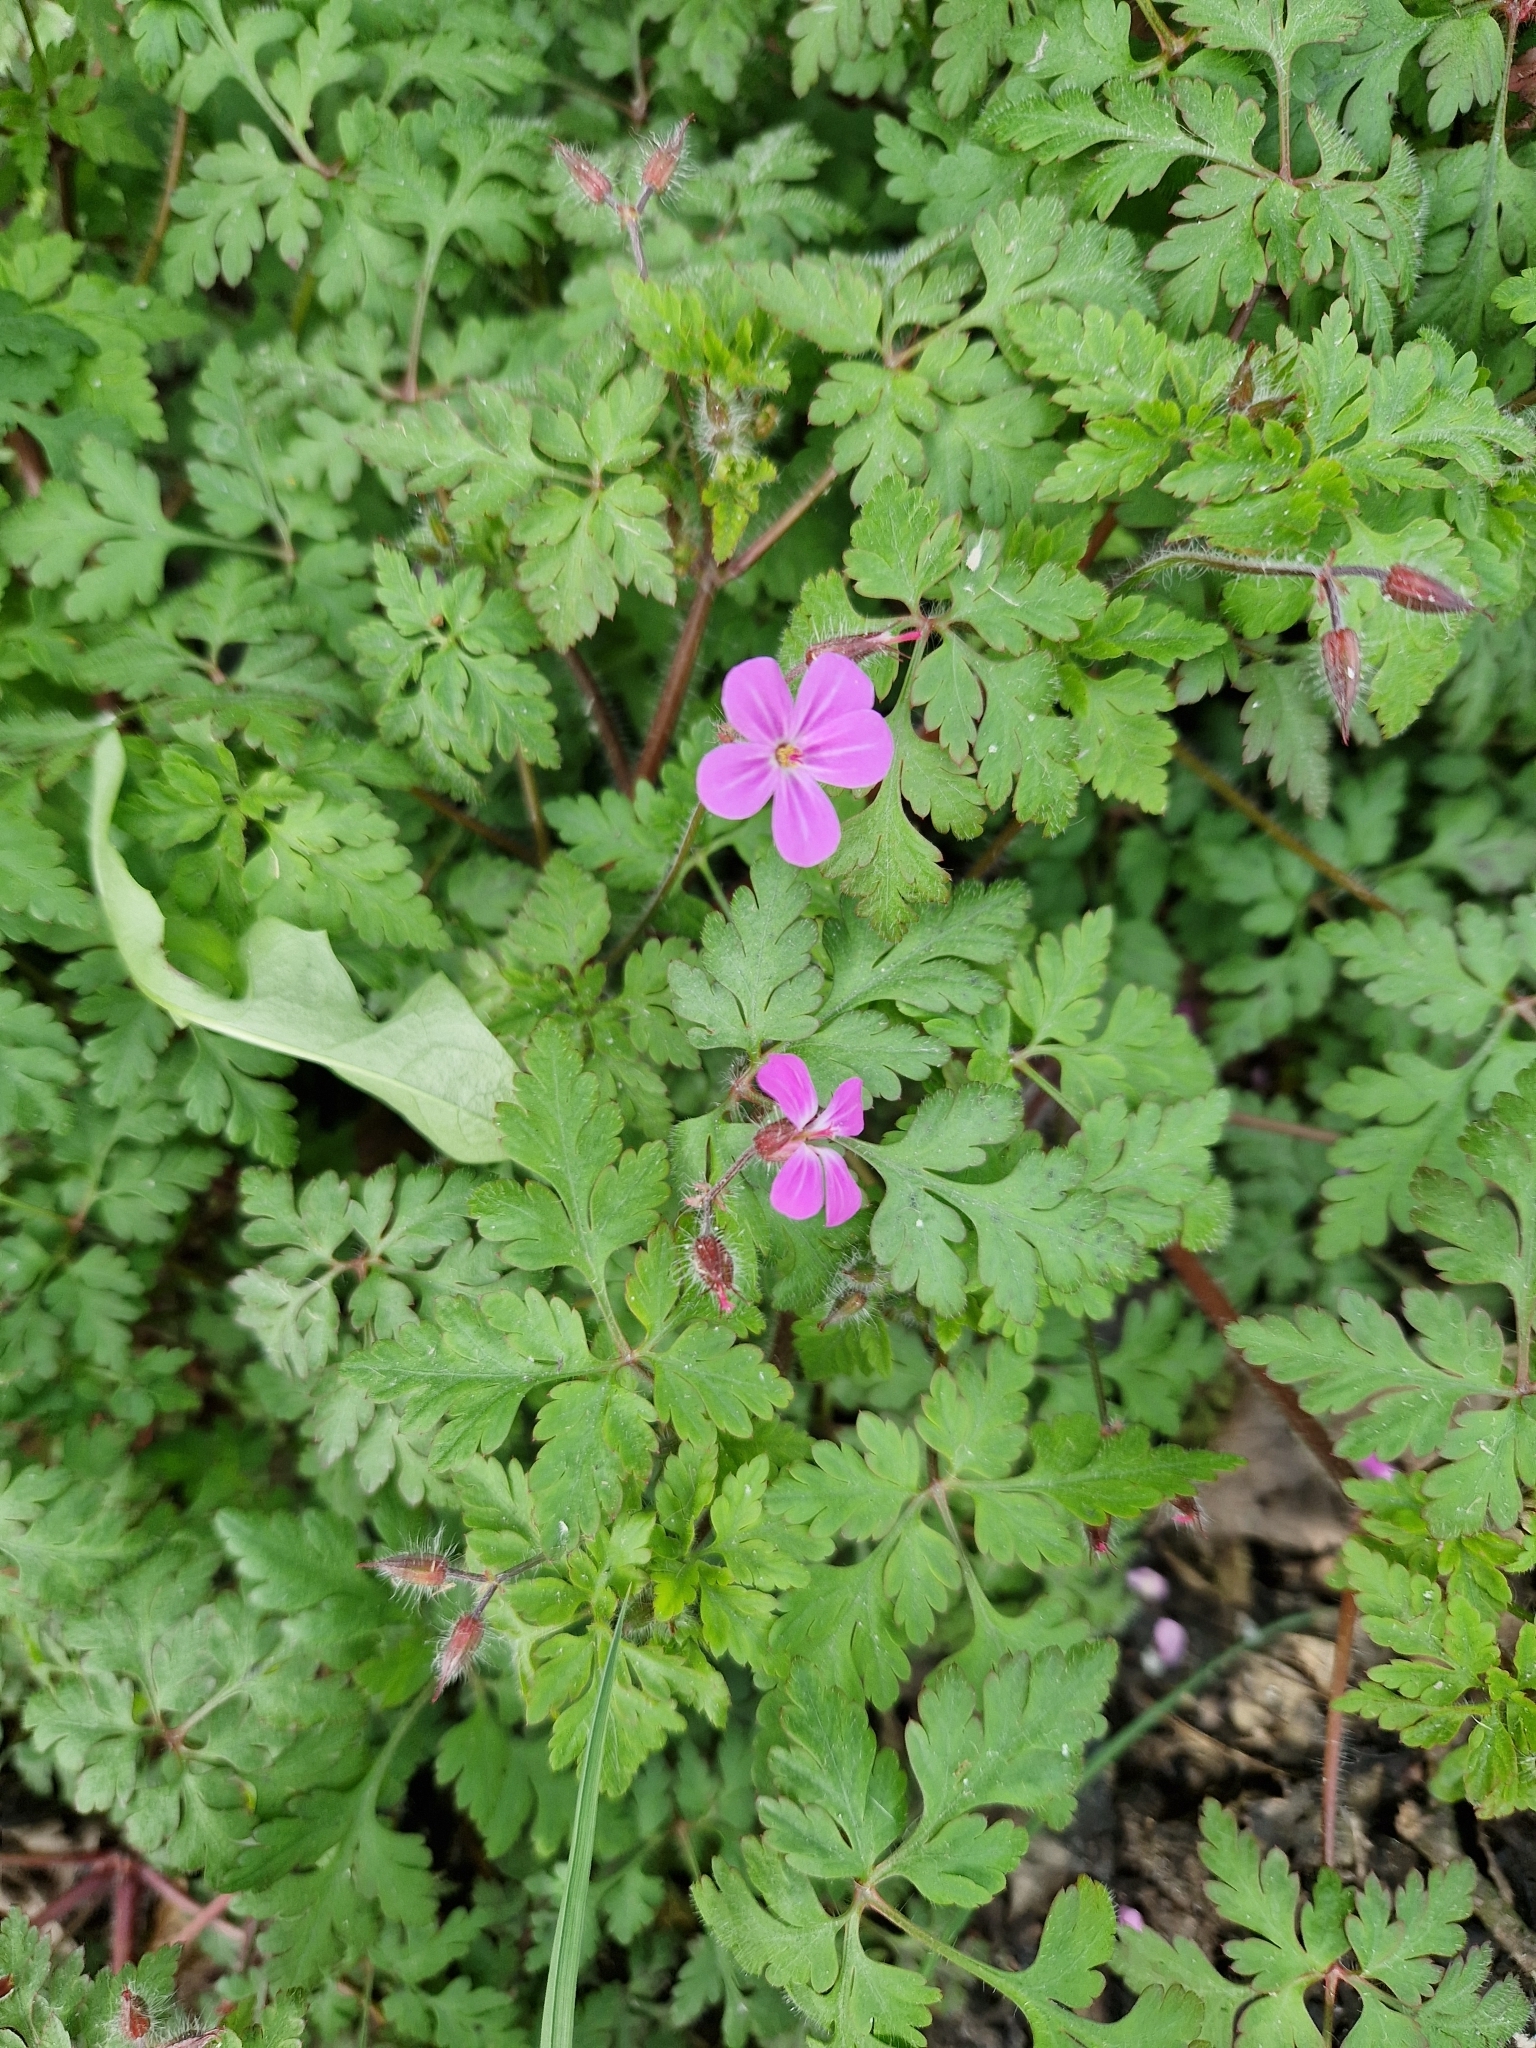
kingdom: Plantae
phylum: Tracheophyta
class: Magnoliopsida
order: Geraniales
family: Geraniaceae
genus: Geranium
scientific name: Geranium robertianum
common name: Herb-robert
